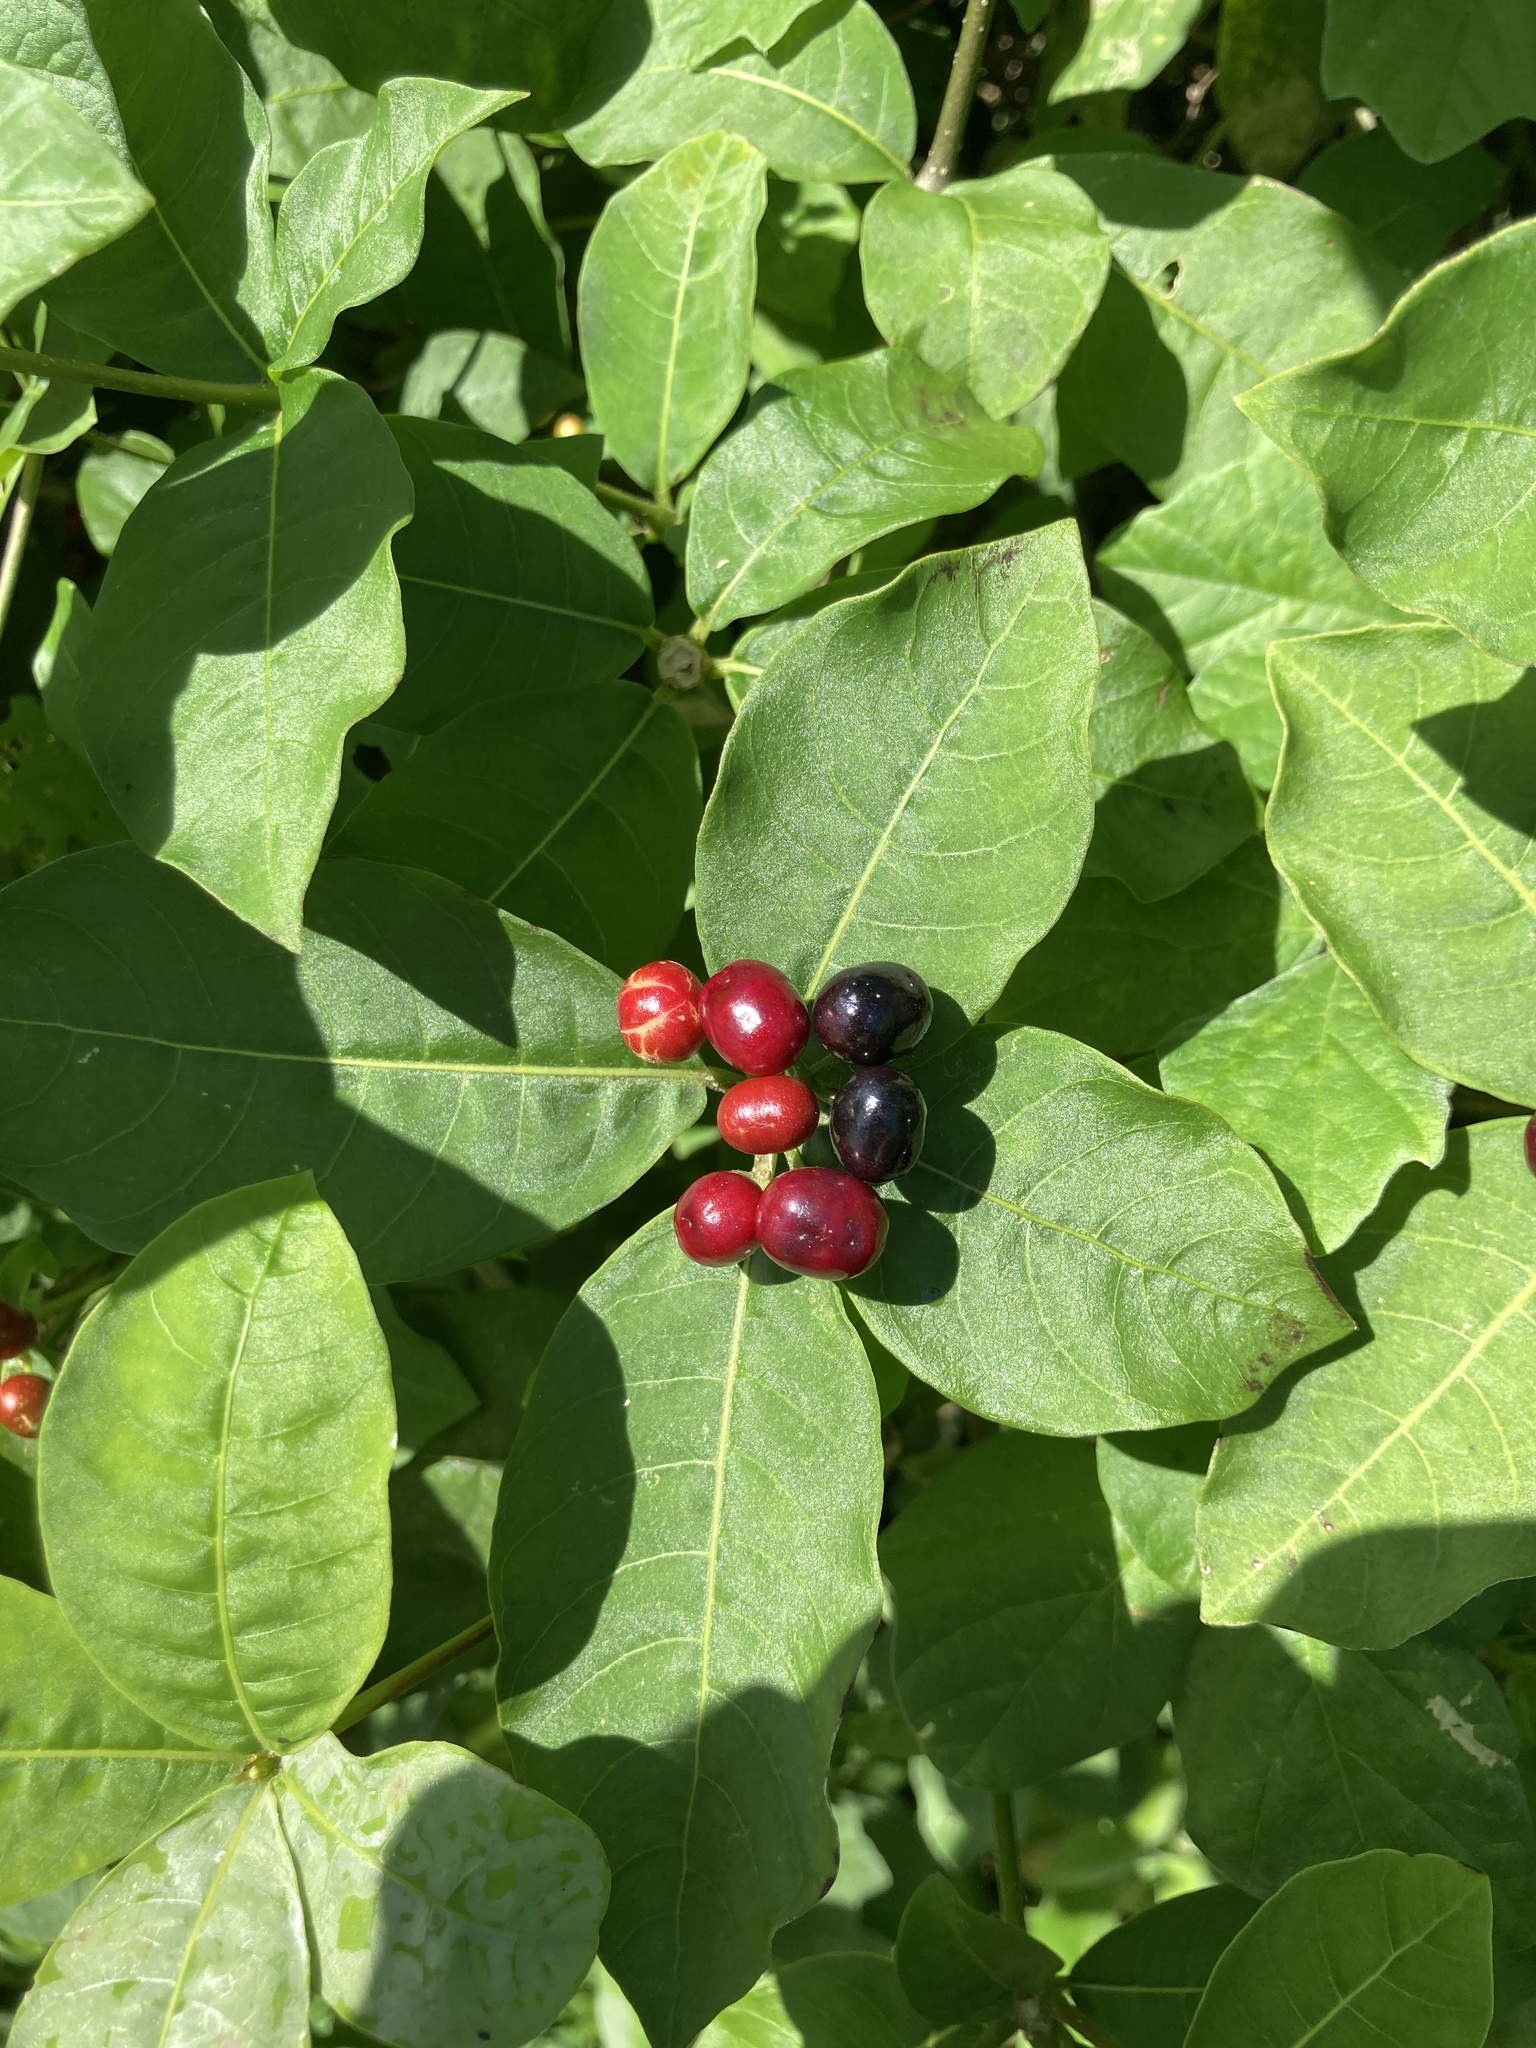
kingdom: Plantae
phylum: Tracheophyta
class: Magnoliopsida
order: Gentianales
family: Apocynaceae
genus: Rauvolfia
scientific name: Rauvolfia tetraphylla
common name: Four-leaf devil-pepper
